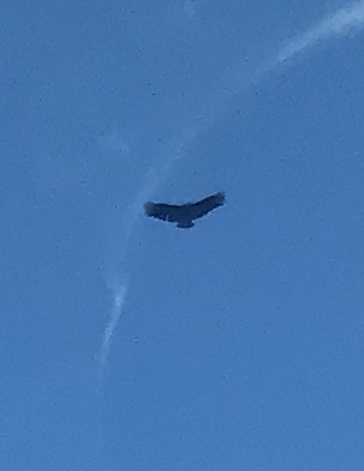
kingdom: Animalia
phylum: Chordata
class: Aves
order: Accipitriformes
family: Cathartidae
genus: Coragyps
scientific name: Coragyps atratus
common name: Black vulture
